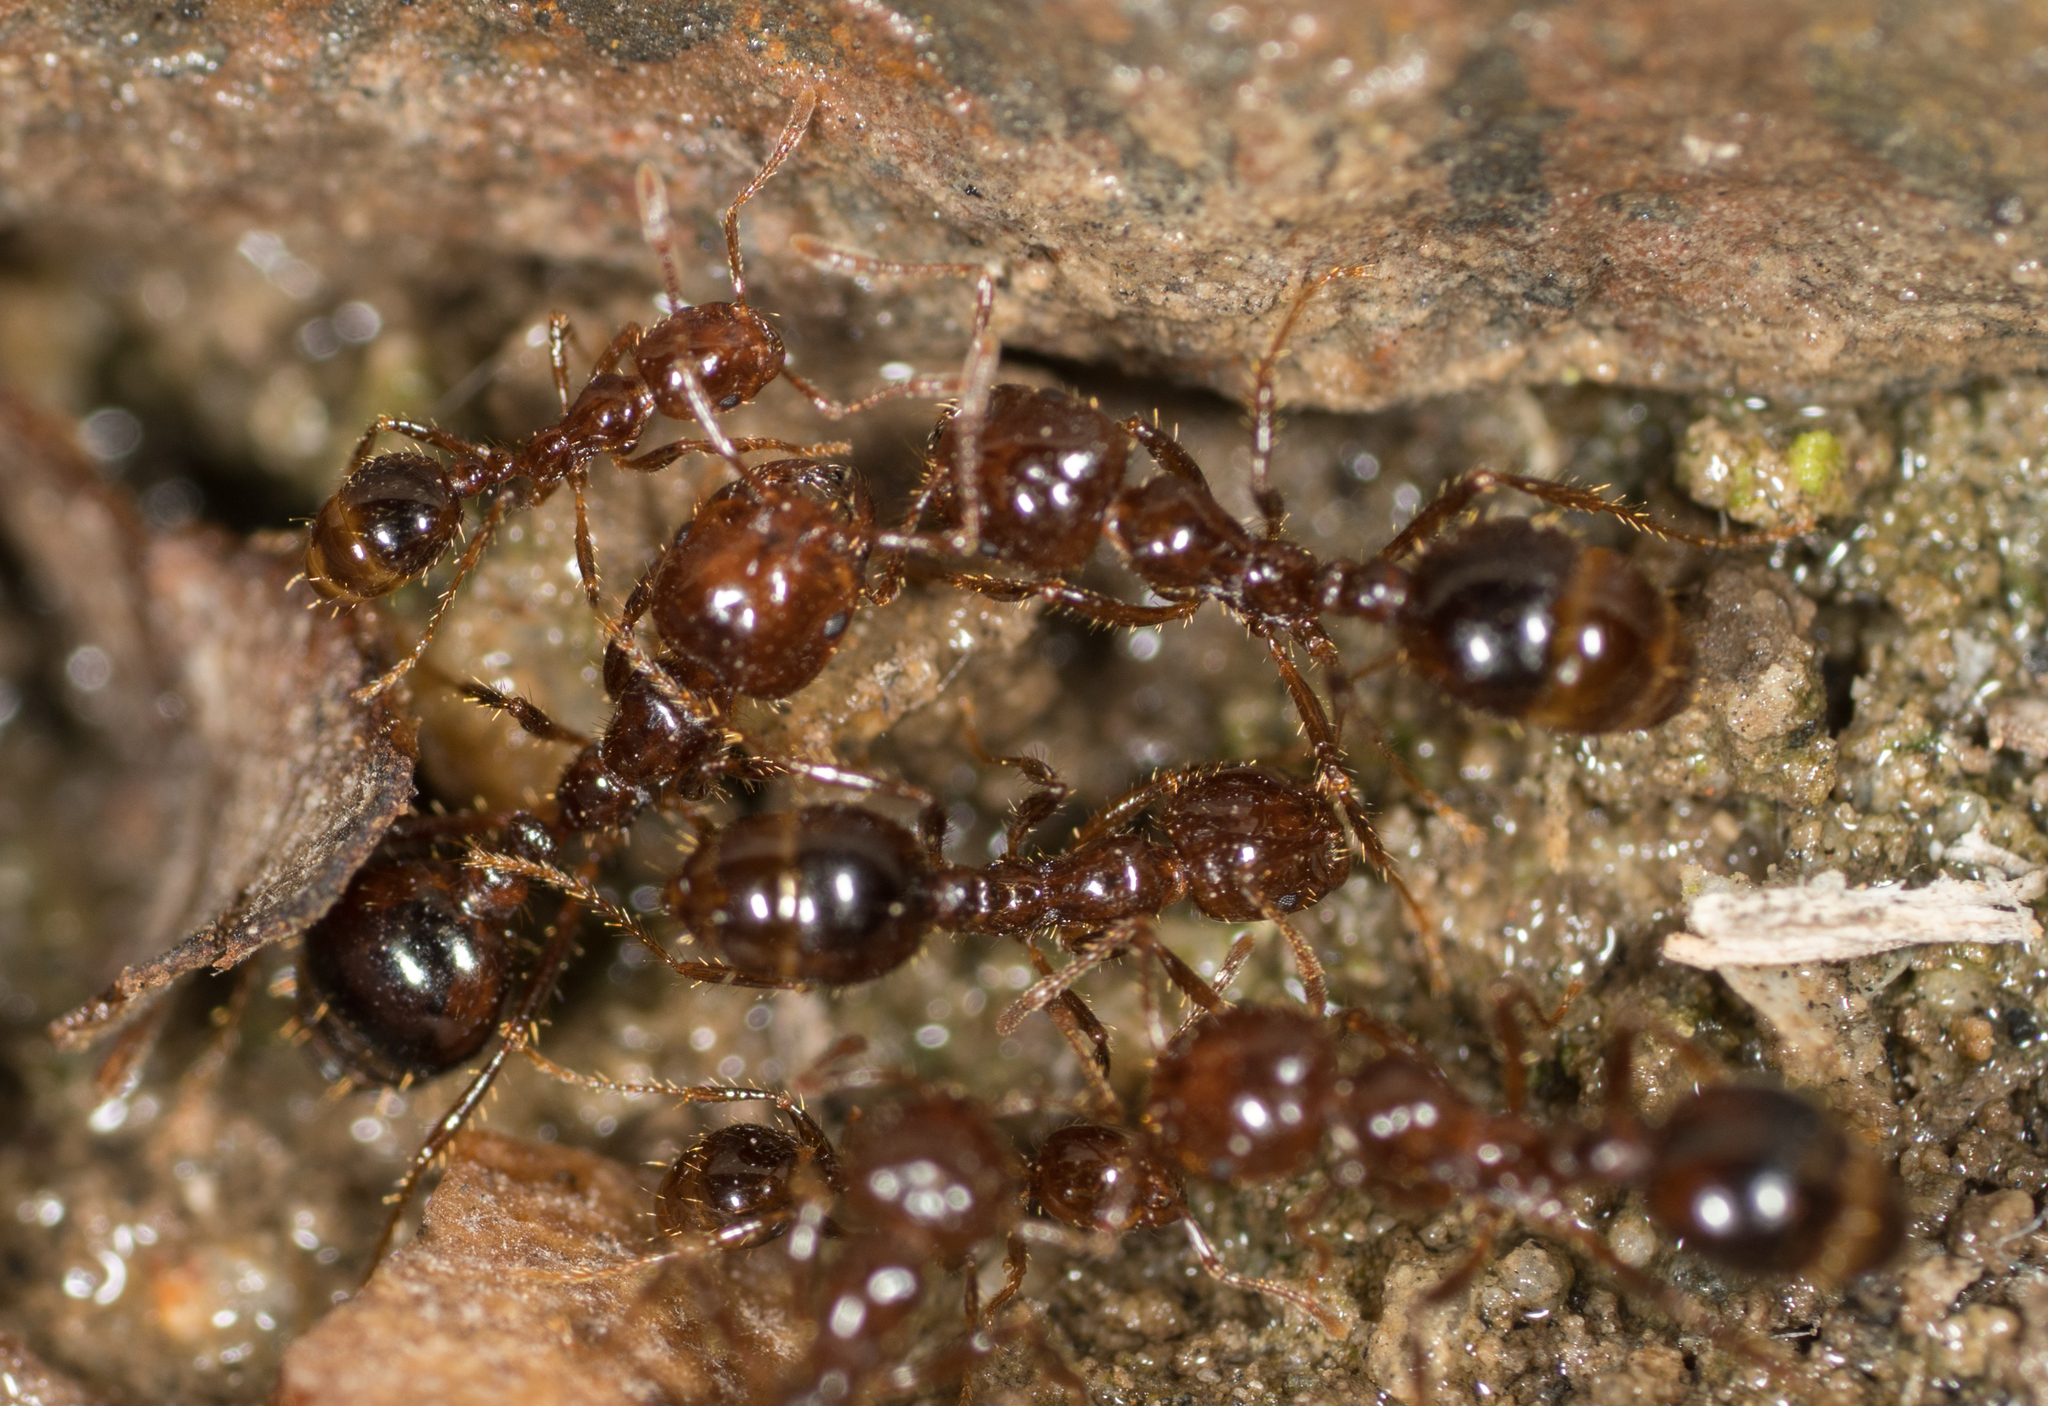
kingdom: Animalia
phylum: Arthropoda
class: Insecta
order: Hymenoptera
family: Formicidae
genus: Solenopsis
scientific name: Solenopsis invicta
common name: Red imported fire ant
